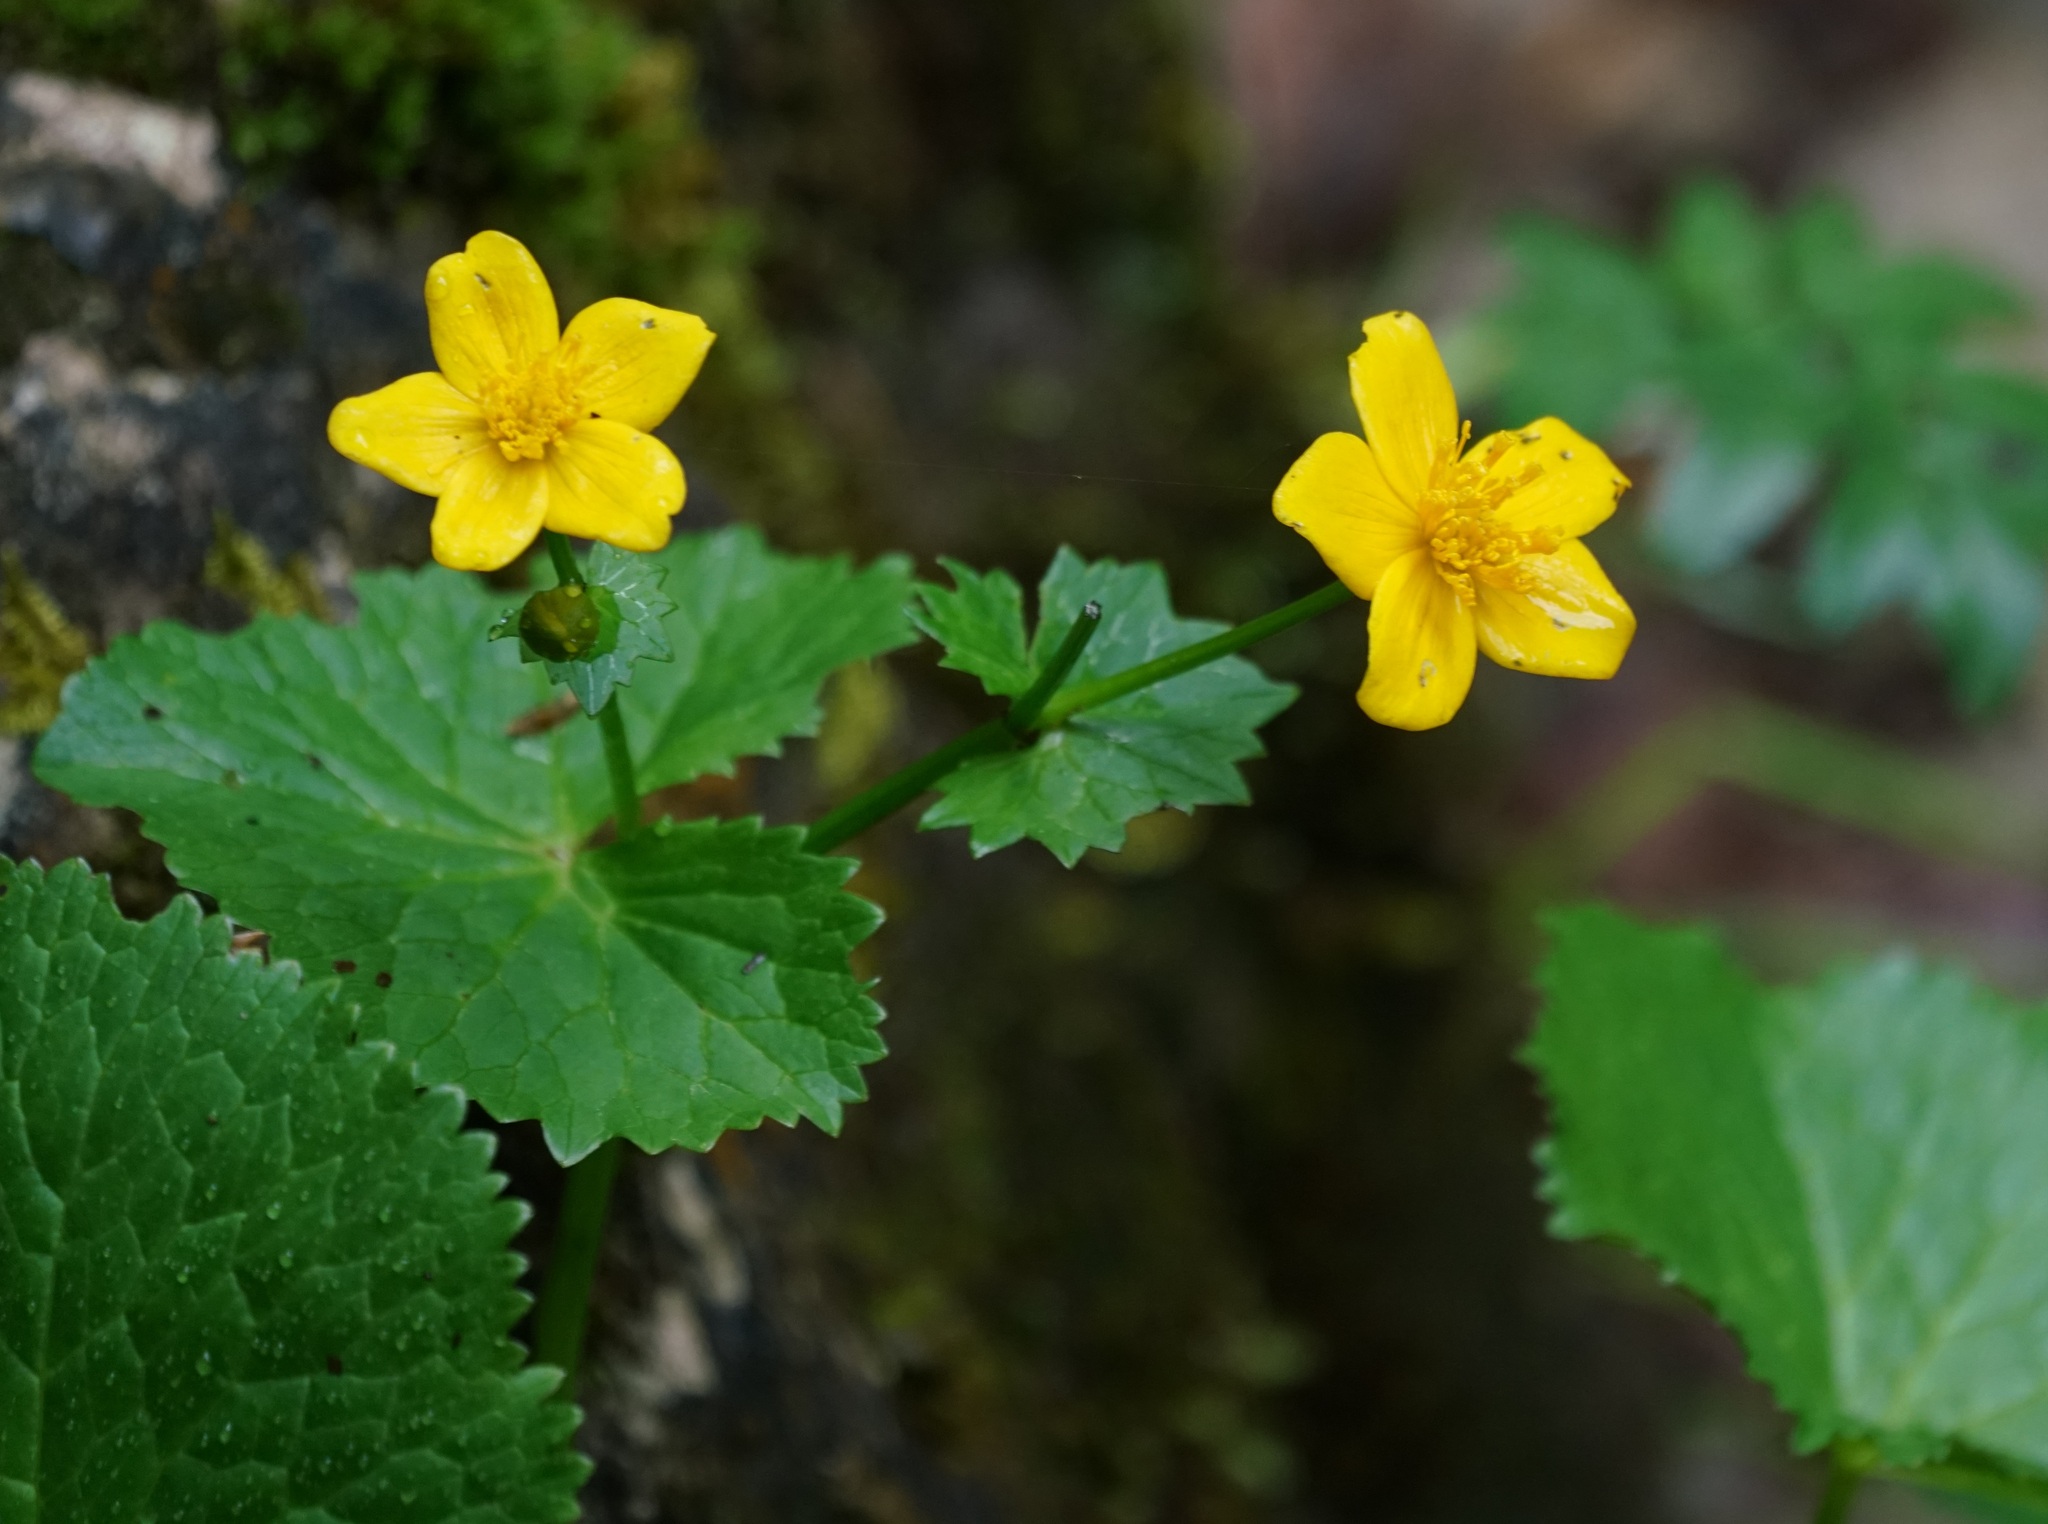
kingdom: Plantae
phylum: Tracheophyta
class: Magnoliopsida
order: Ranunculales
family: Ranunculaceae
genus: Caltha
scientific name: Caltha palustris
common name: Marsh marigold
